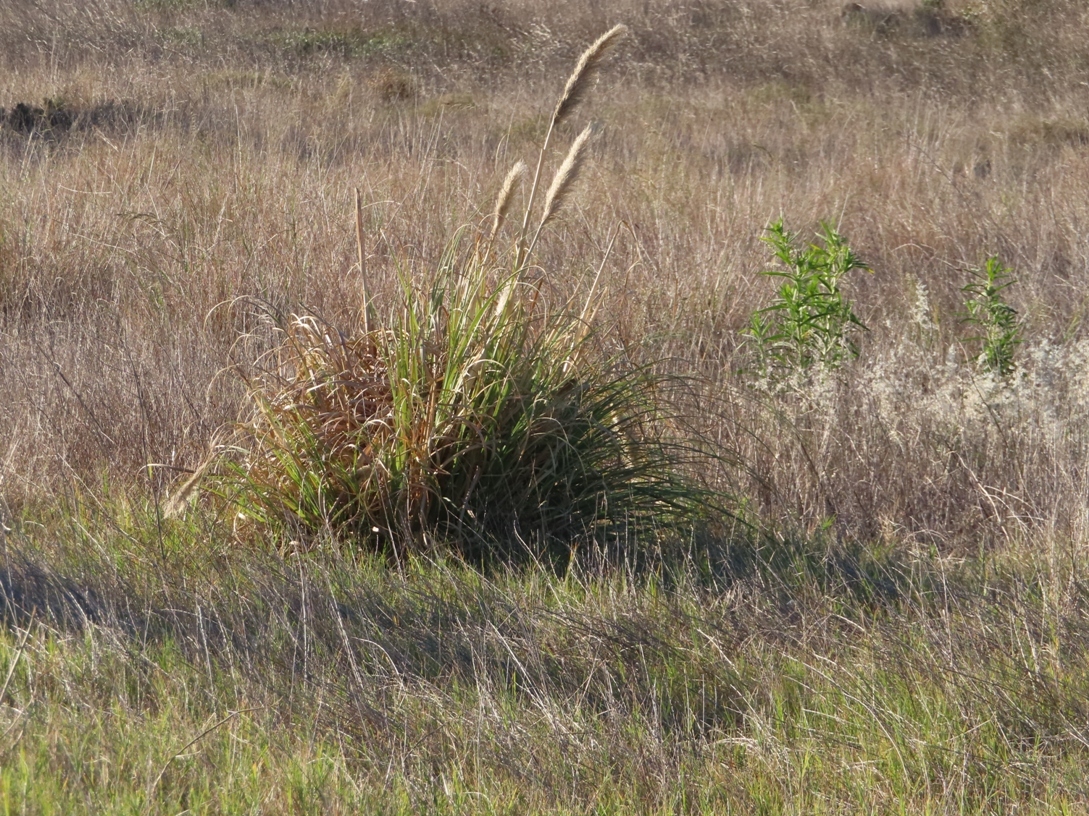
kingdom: Plantae
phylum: Tracheophyta
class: Liliopsida
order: Poales
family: Poaceae
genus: Cortaderia
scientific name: Cortaderia selloana
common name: Uruguayan pampas grass
